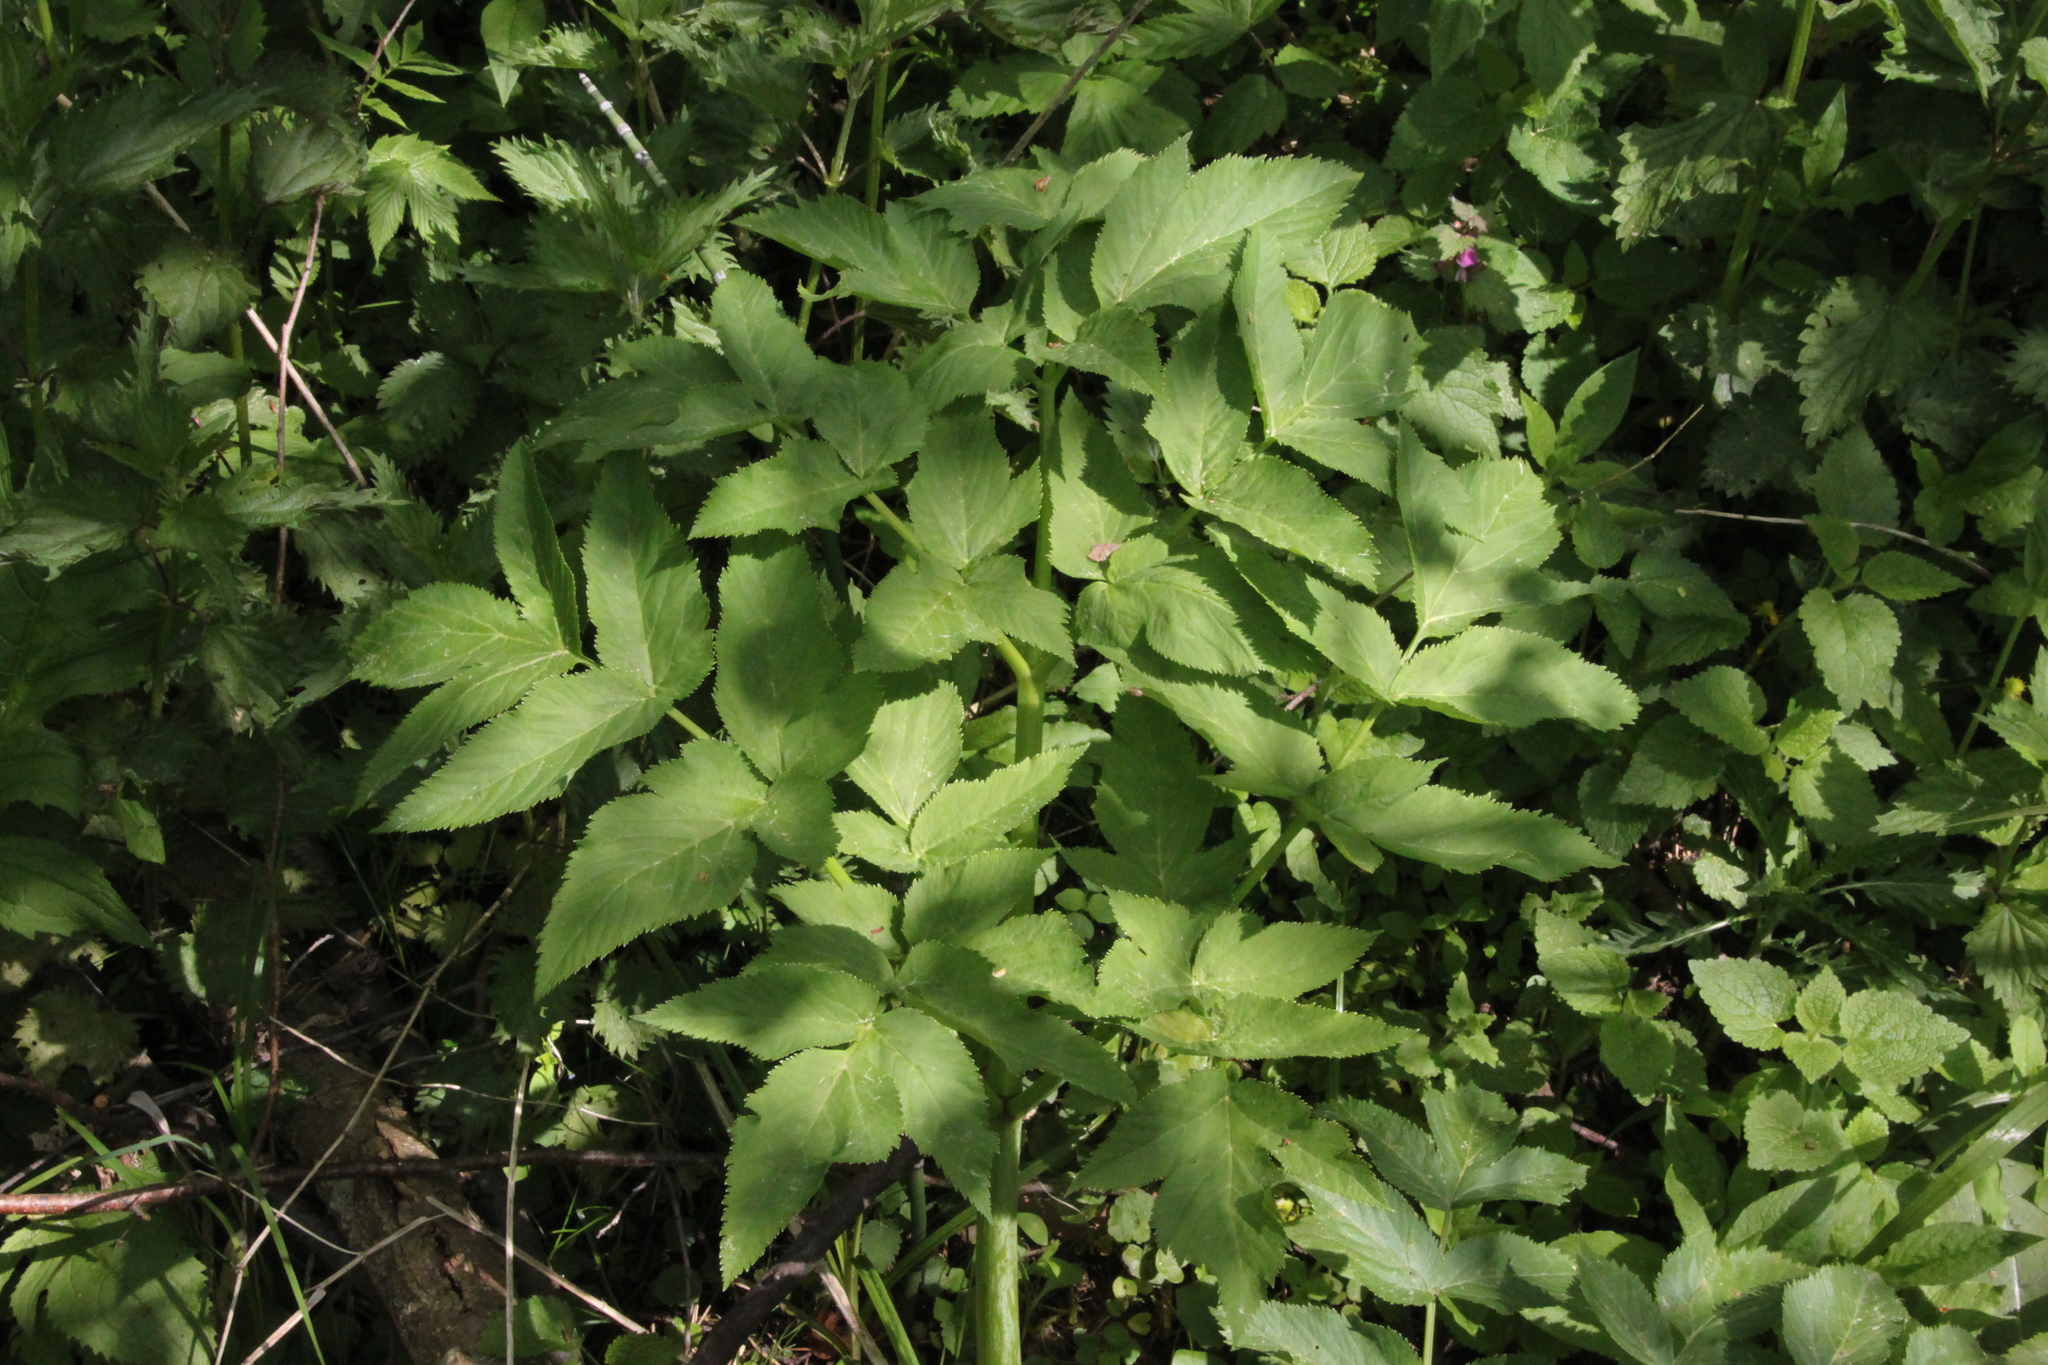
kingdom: Plantae
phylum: Tracheophyta
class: Magnoliopsida
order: Apiales
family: Apiaceae
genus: Angelica
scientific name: Angelica archangelica
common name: Garden angelica
